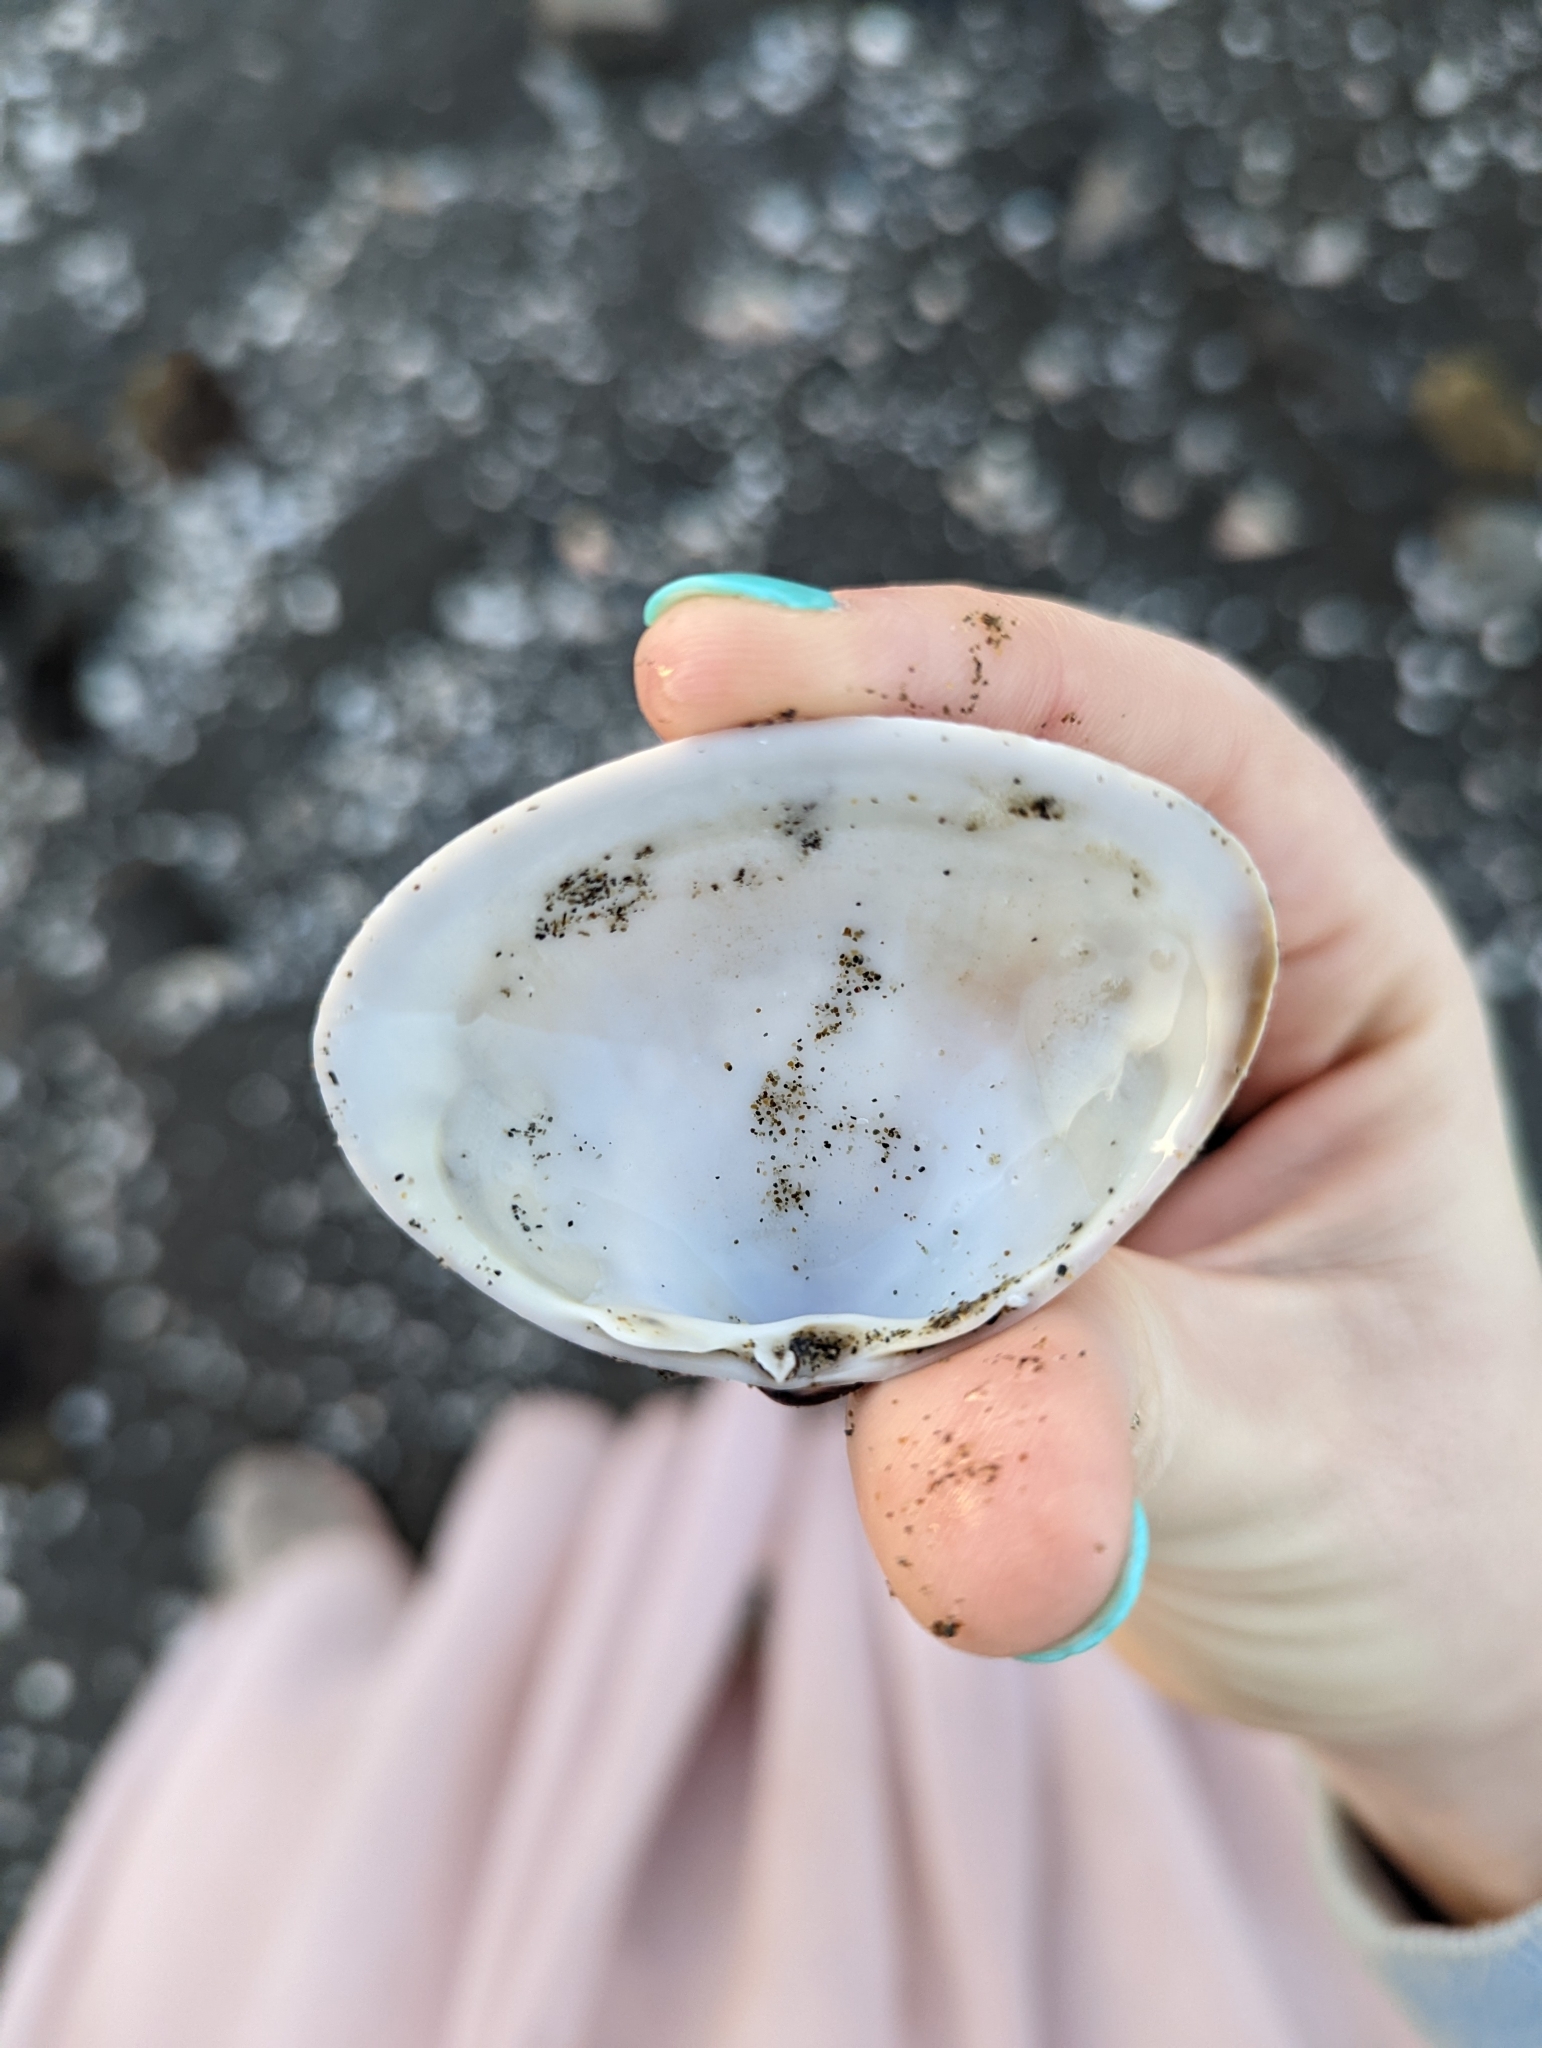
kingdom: Animalia
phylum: Mollusca
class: Bivalvia
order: Venerida
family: Mactridae
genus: Mactra
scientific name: Mactra chinensis
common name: Chinese surf clam
